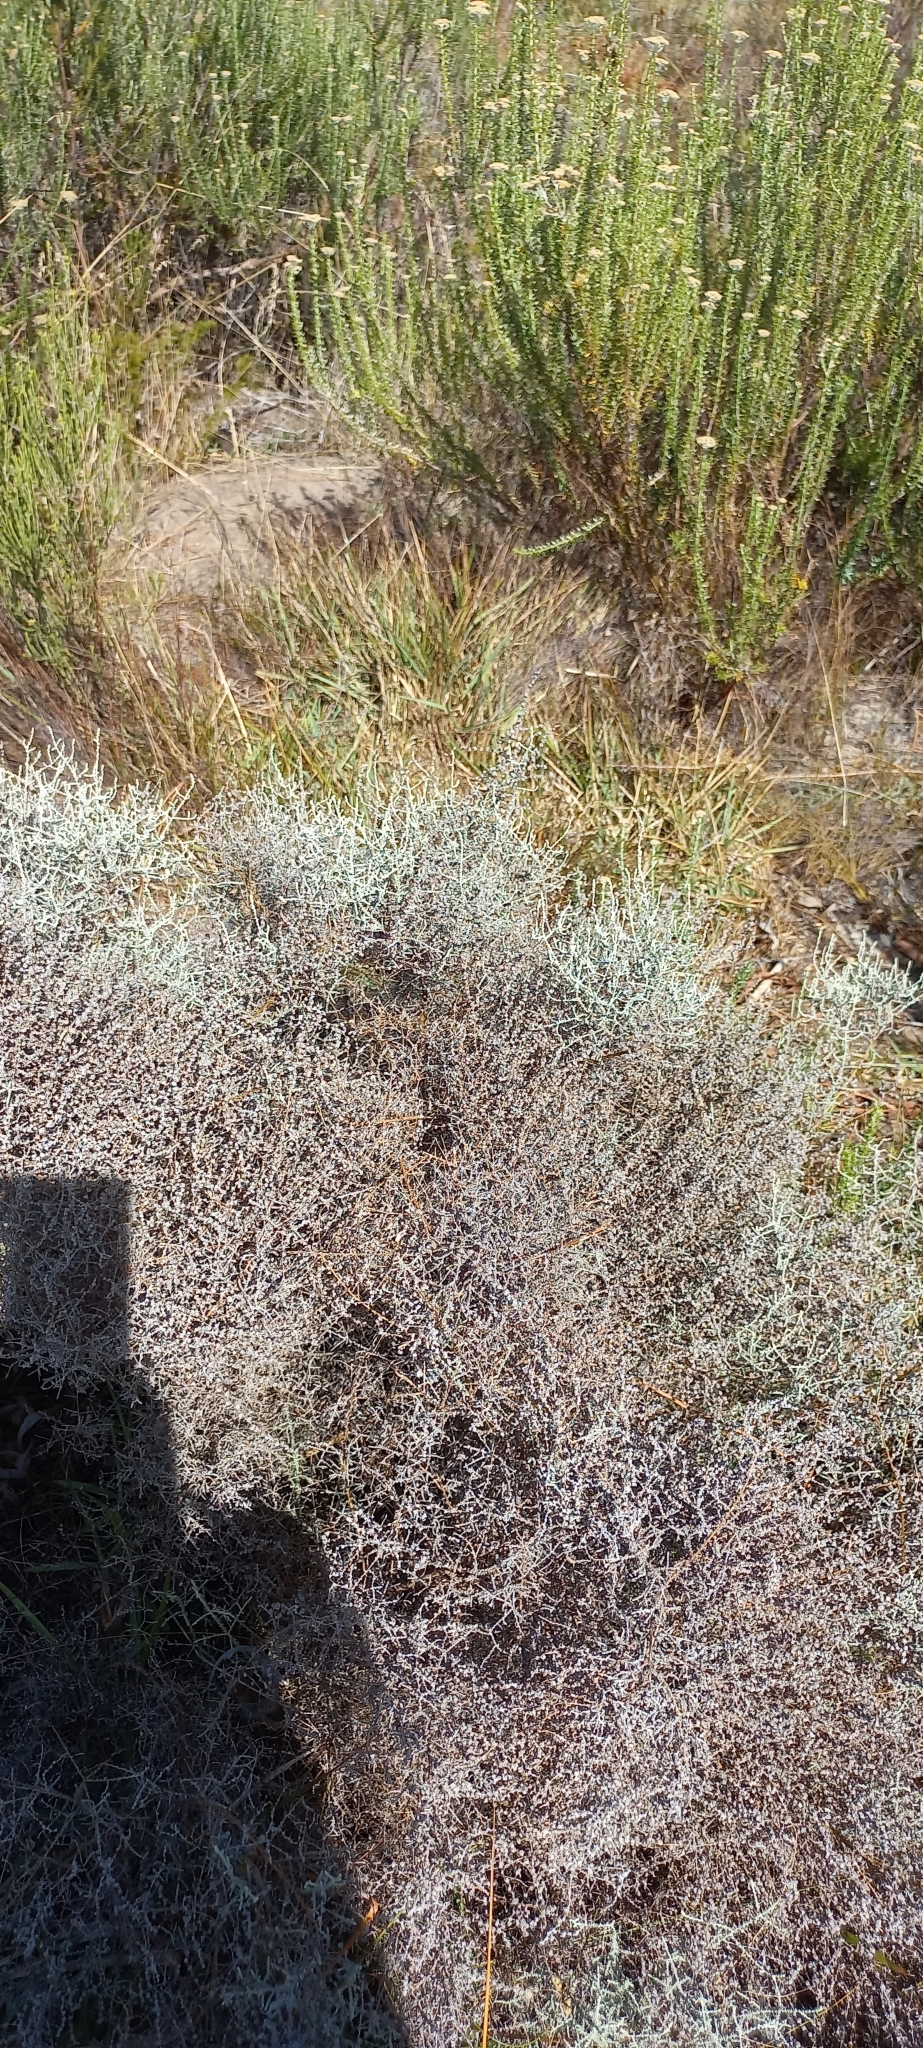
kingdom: Plantae
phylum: Tracheophyta
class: Magnoliopsida
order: Asterales
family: Asteraceae
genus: Seriphium
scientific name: Seriphium plumosum
